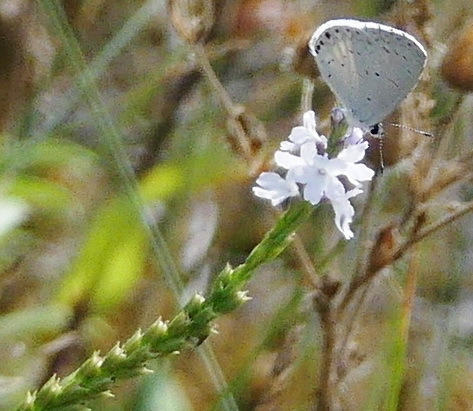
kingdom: Plantae
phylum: Tracheophyta
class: Magnoliopsida
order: Lamiales
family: Verbenaceae
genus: Verbena
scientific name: Verbena simplex
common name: Narrow-leaf vervain
